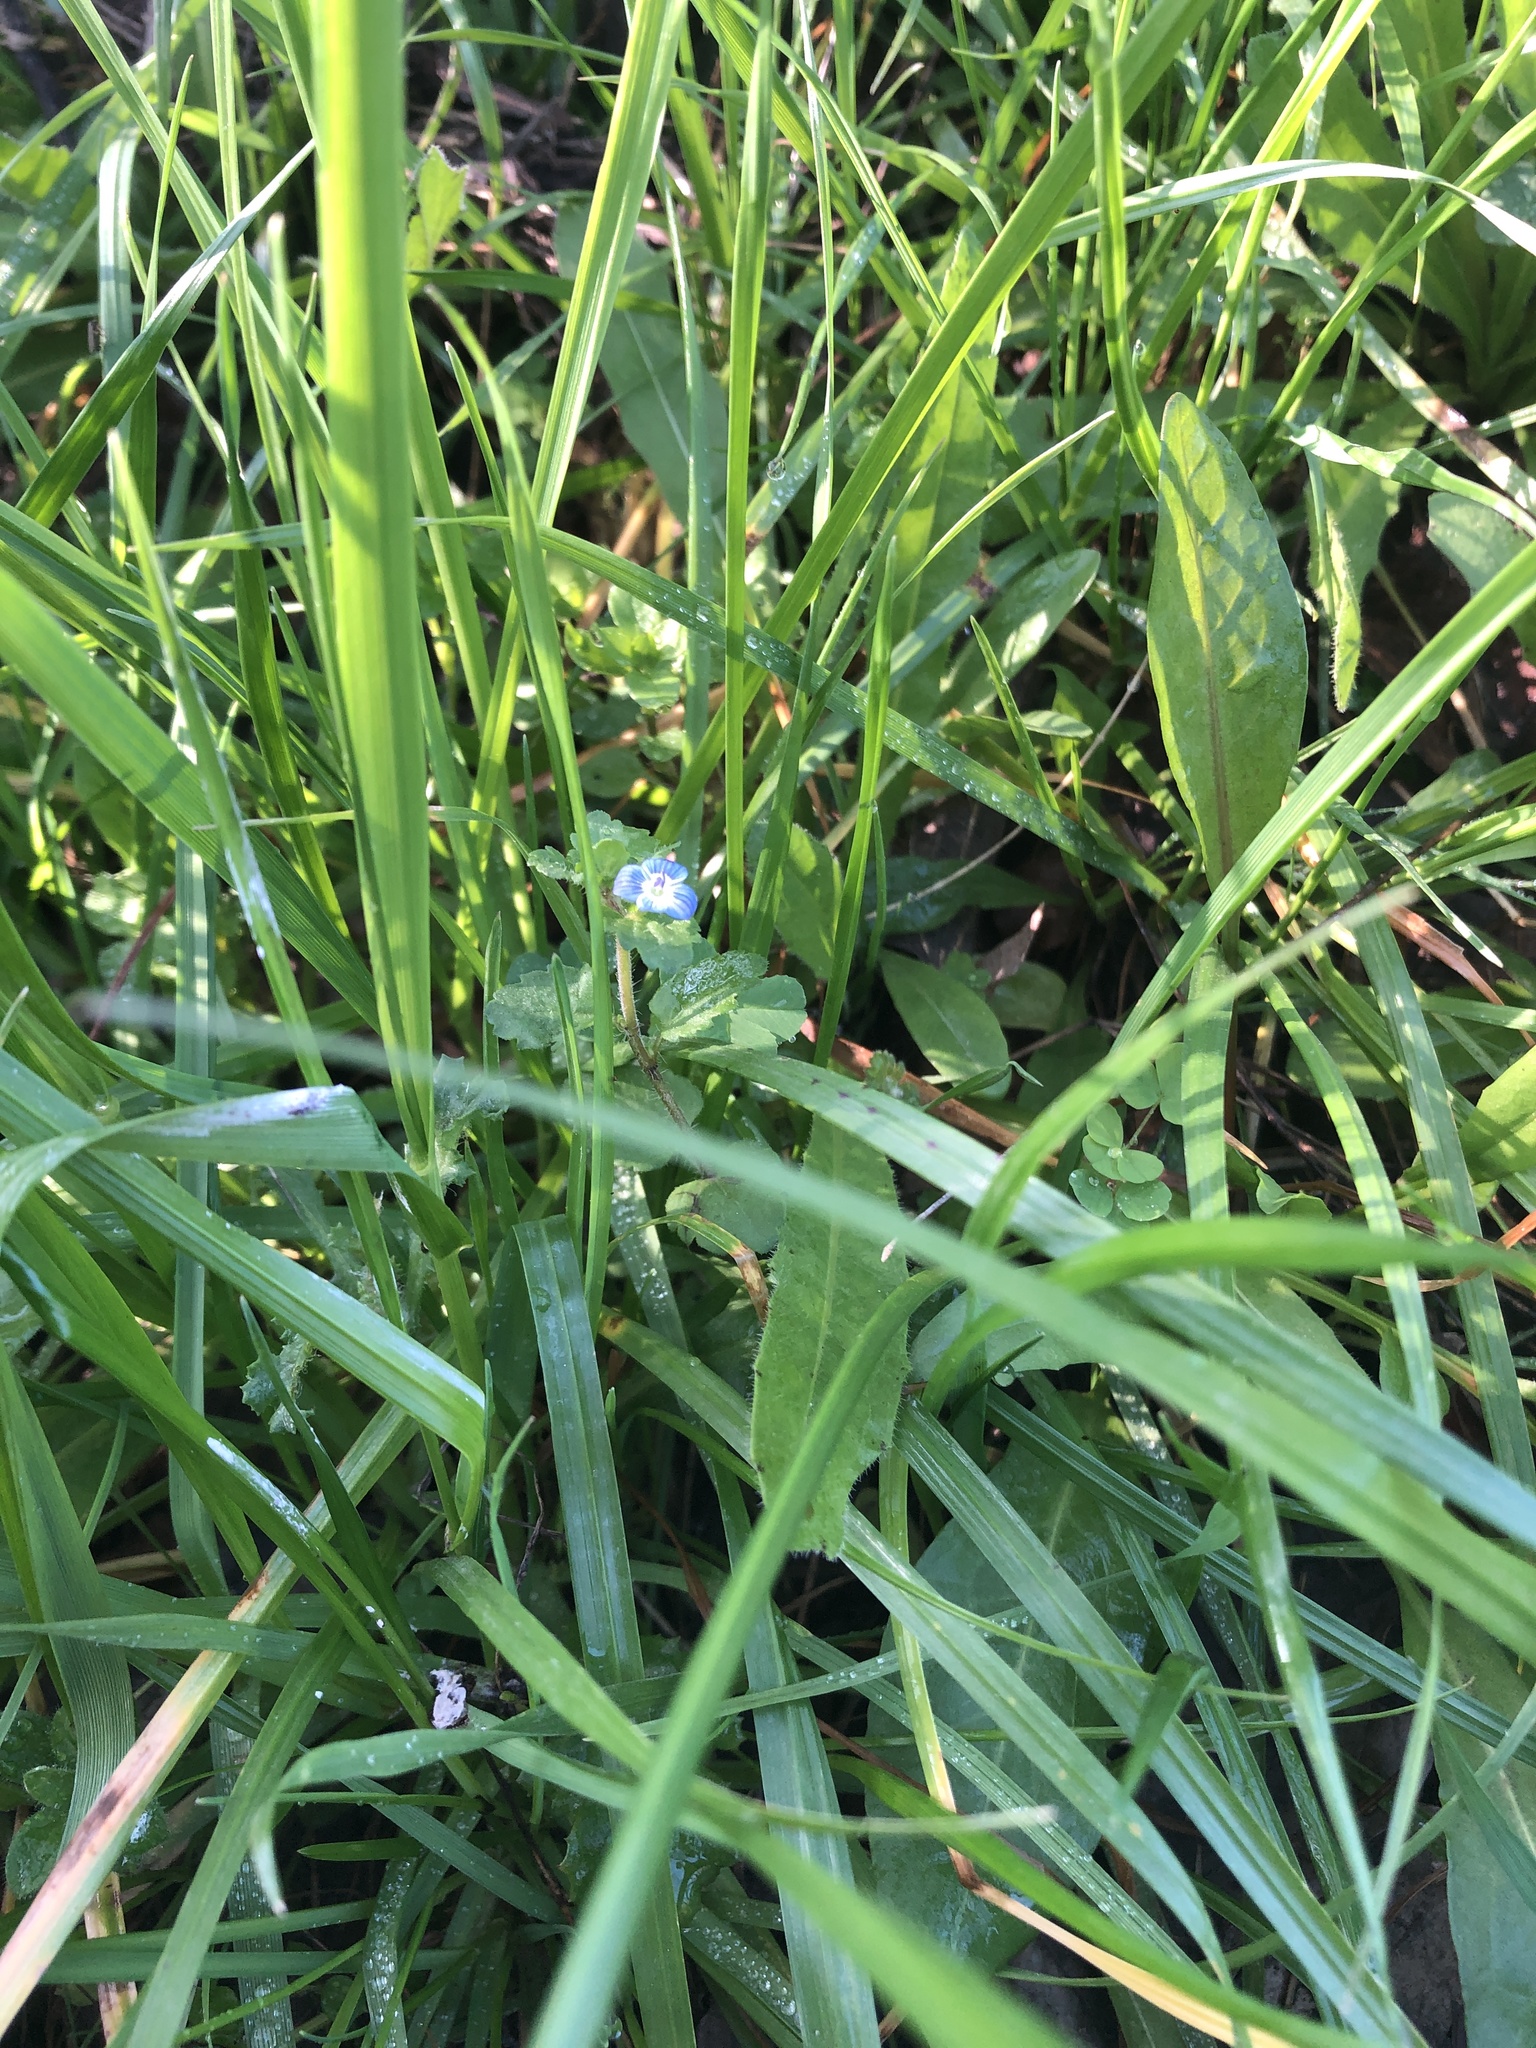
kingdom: Plantae
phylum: Tracheophyta
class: Magnoliopsida
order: Lamiales
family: Plantaginaceae
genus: Veronica
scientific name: Veronica persica
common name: Common field-speedwell
